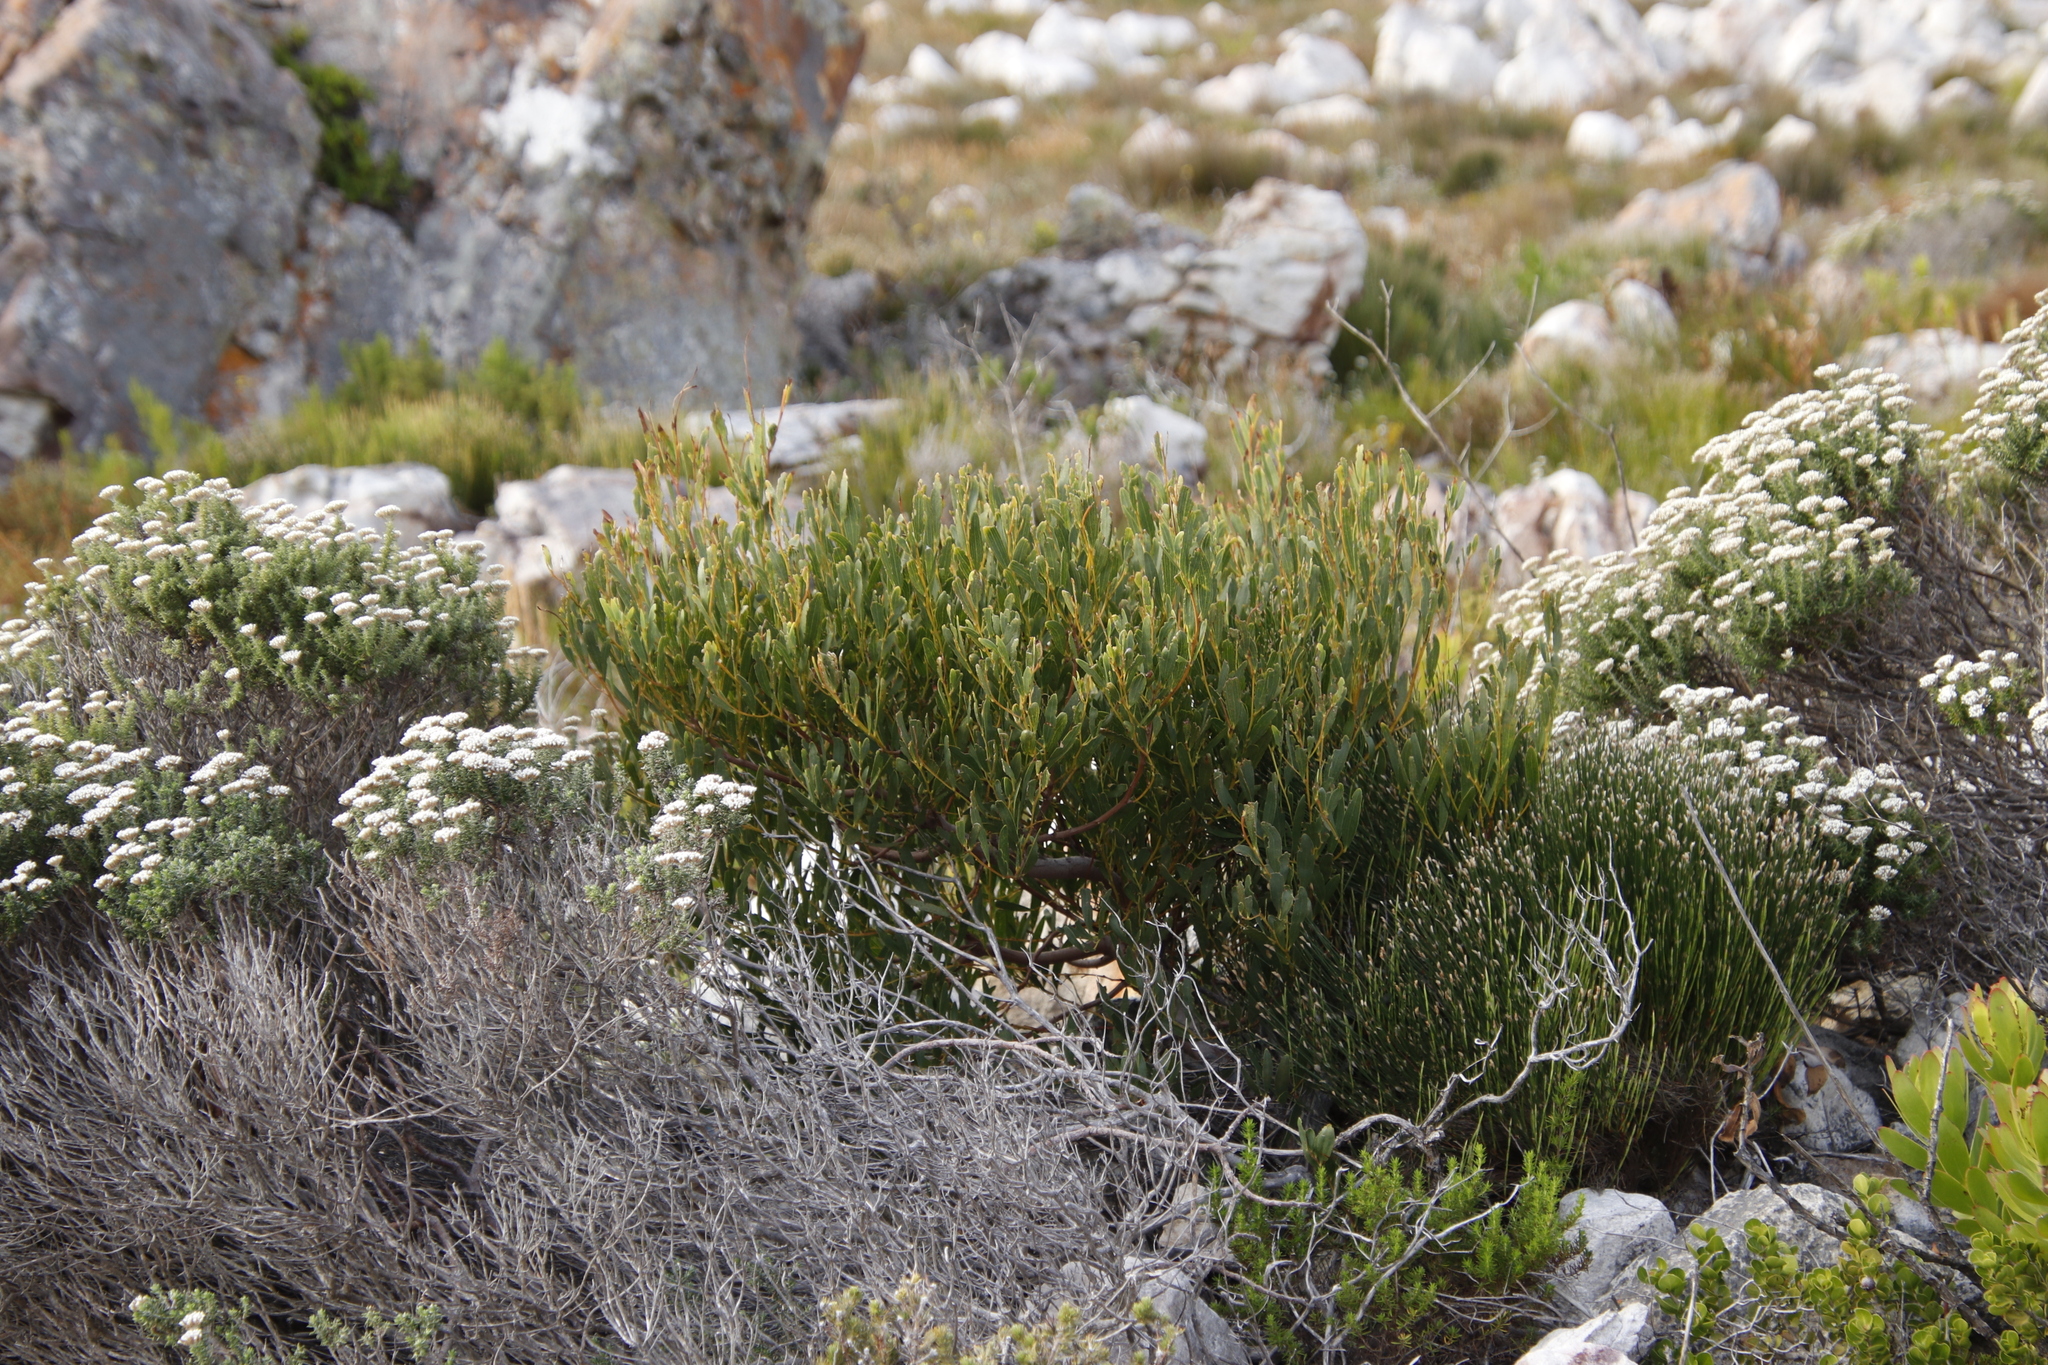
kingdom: Plantae
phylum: Tracheophyta
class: Magnoliopsida
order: Fabales
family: Fabaceae
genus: Acacia
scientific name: Acacia cyclops
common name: Coastal wattle
